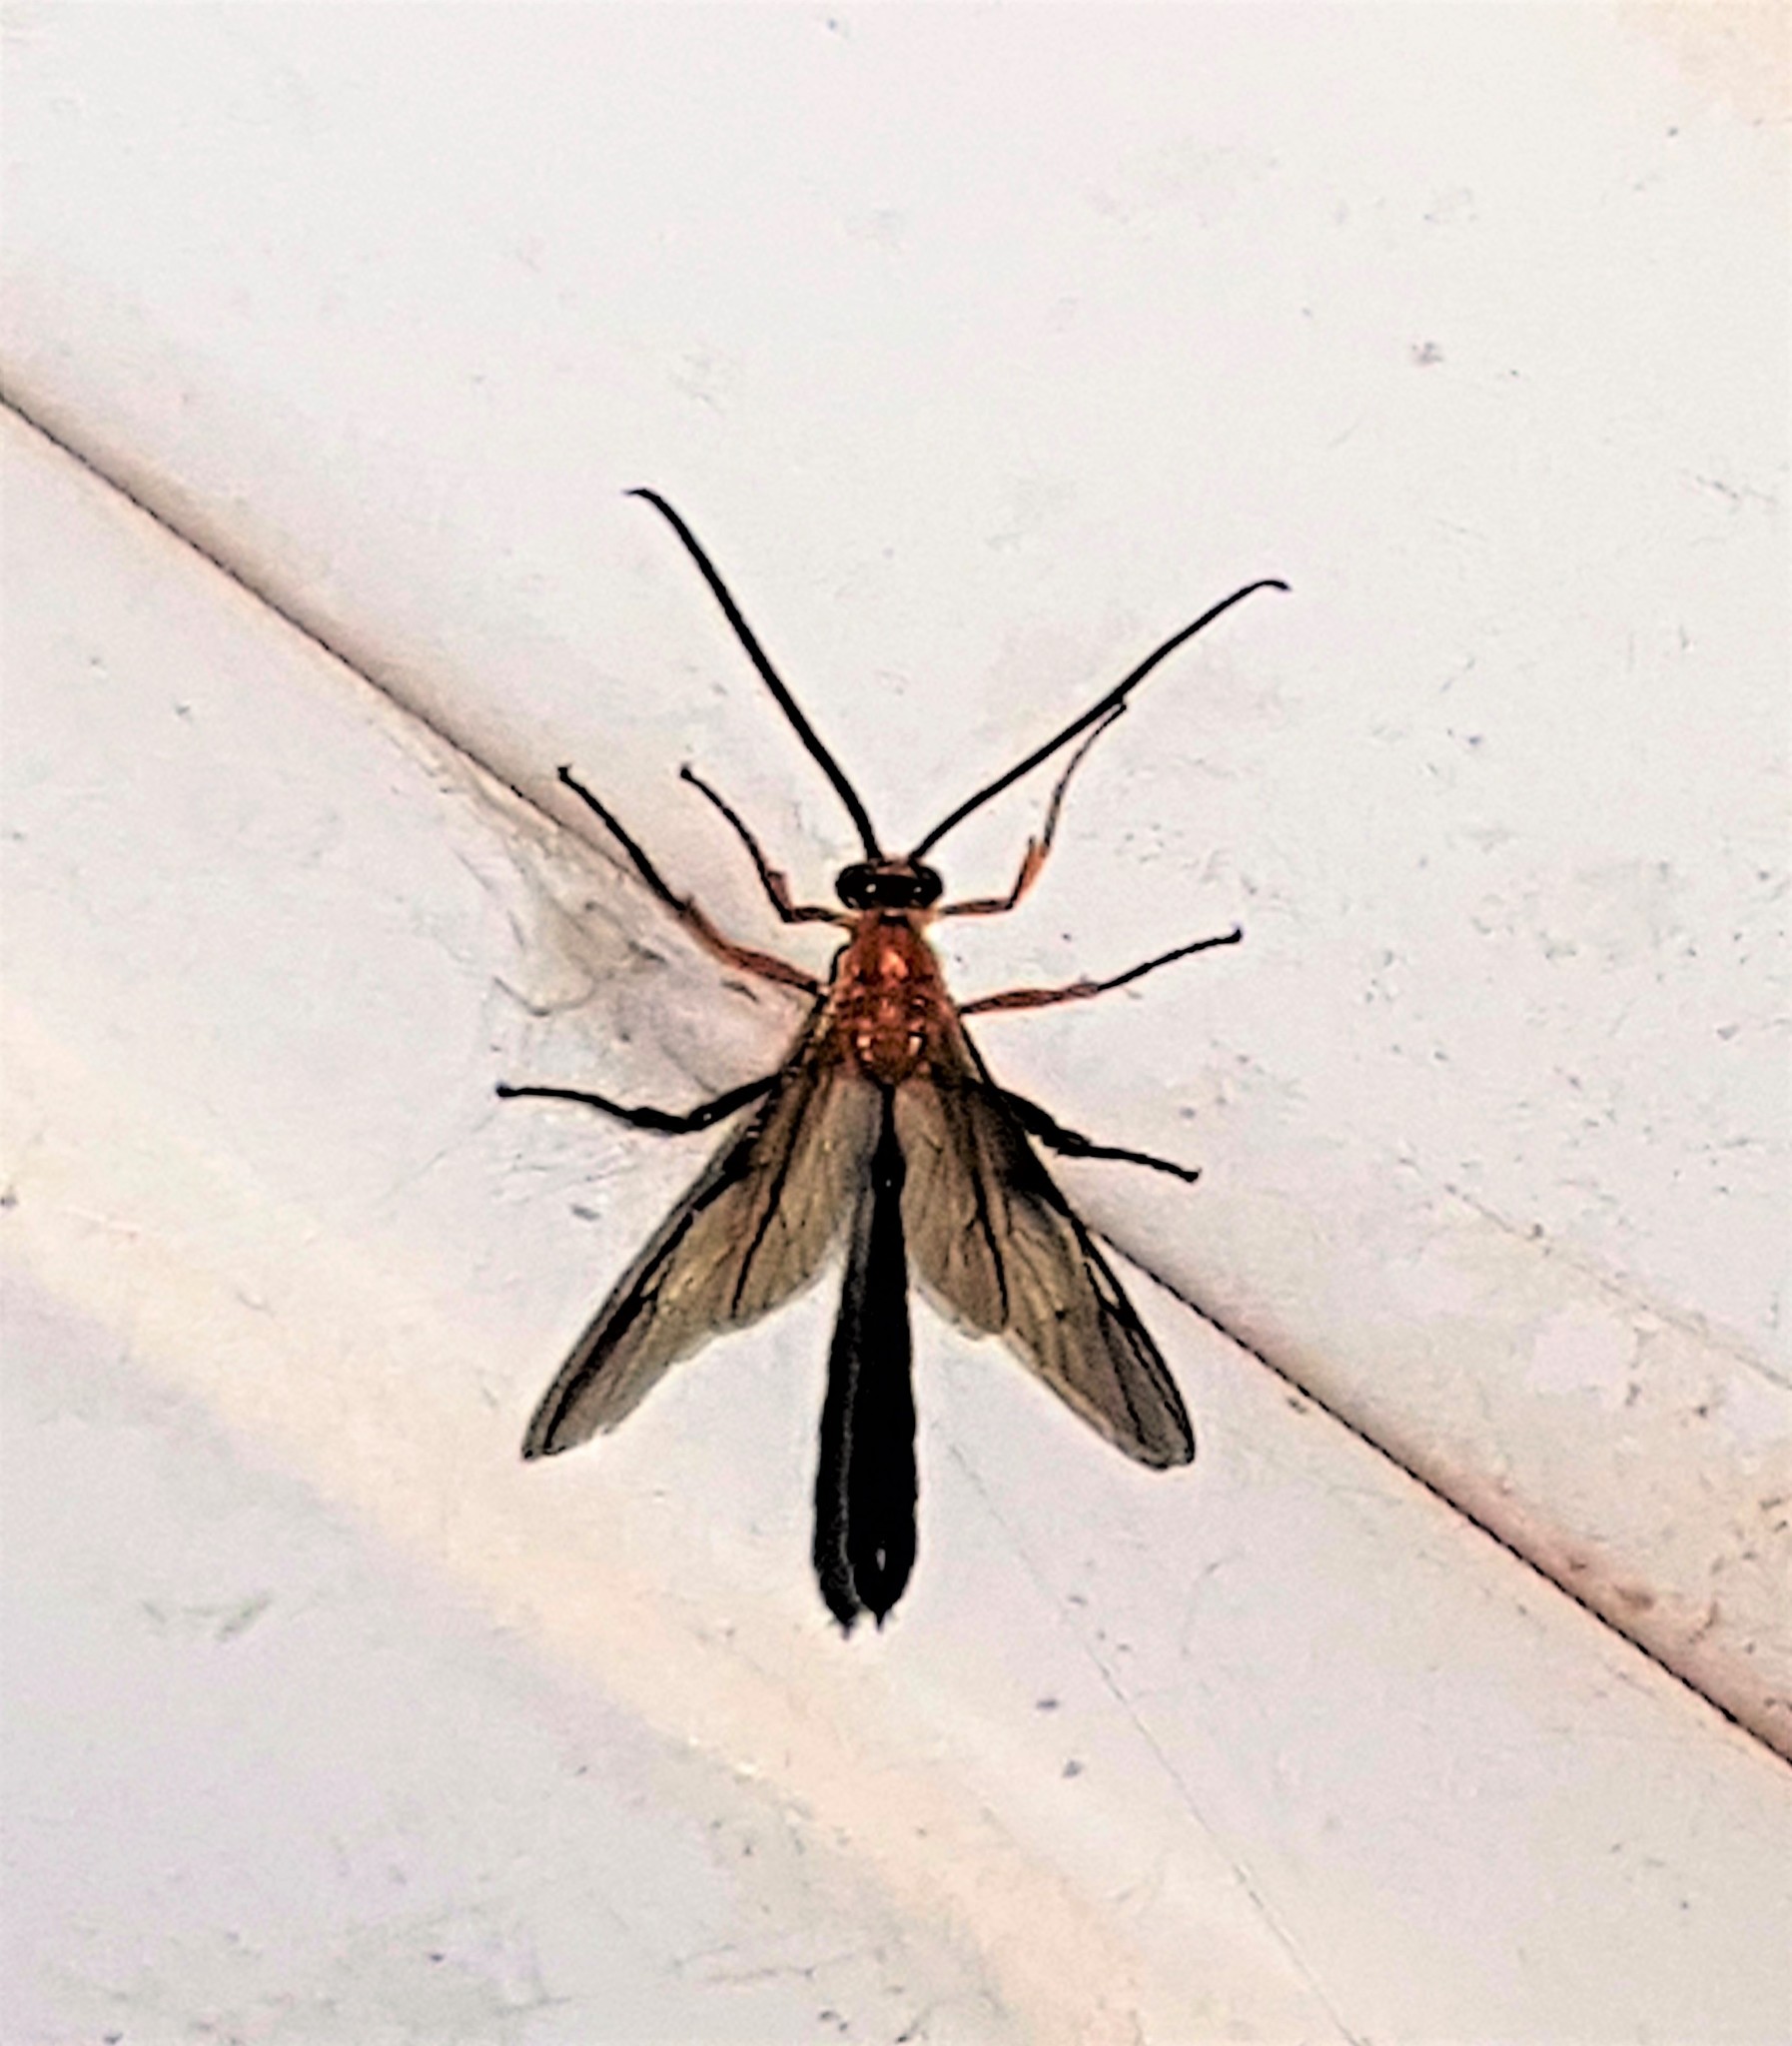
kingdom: Animalia
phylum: Arthropoda
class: Insecta
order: Hymenoptera
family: Ichneumonidae
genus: Thyreodon
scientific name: Thyreodon rufothorax
